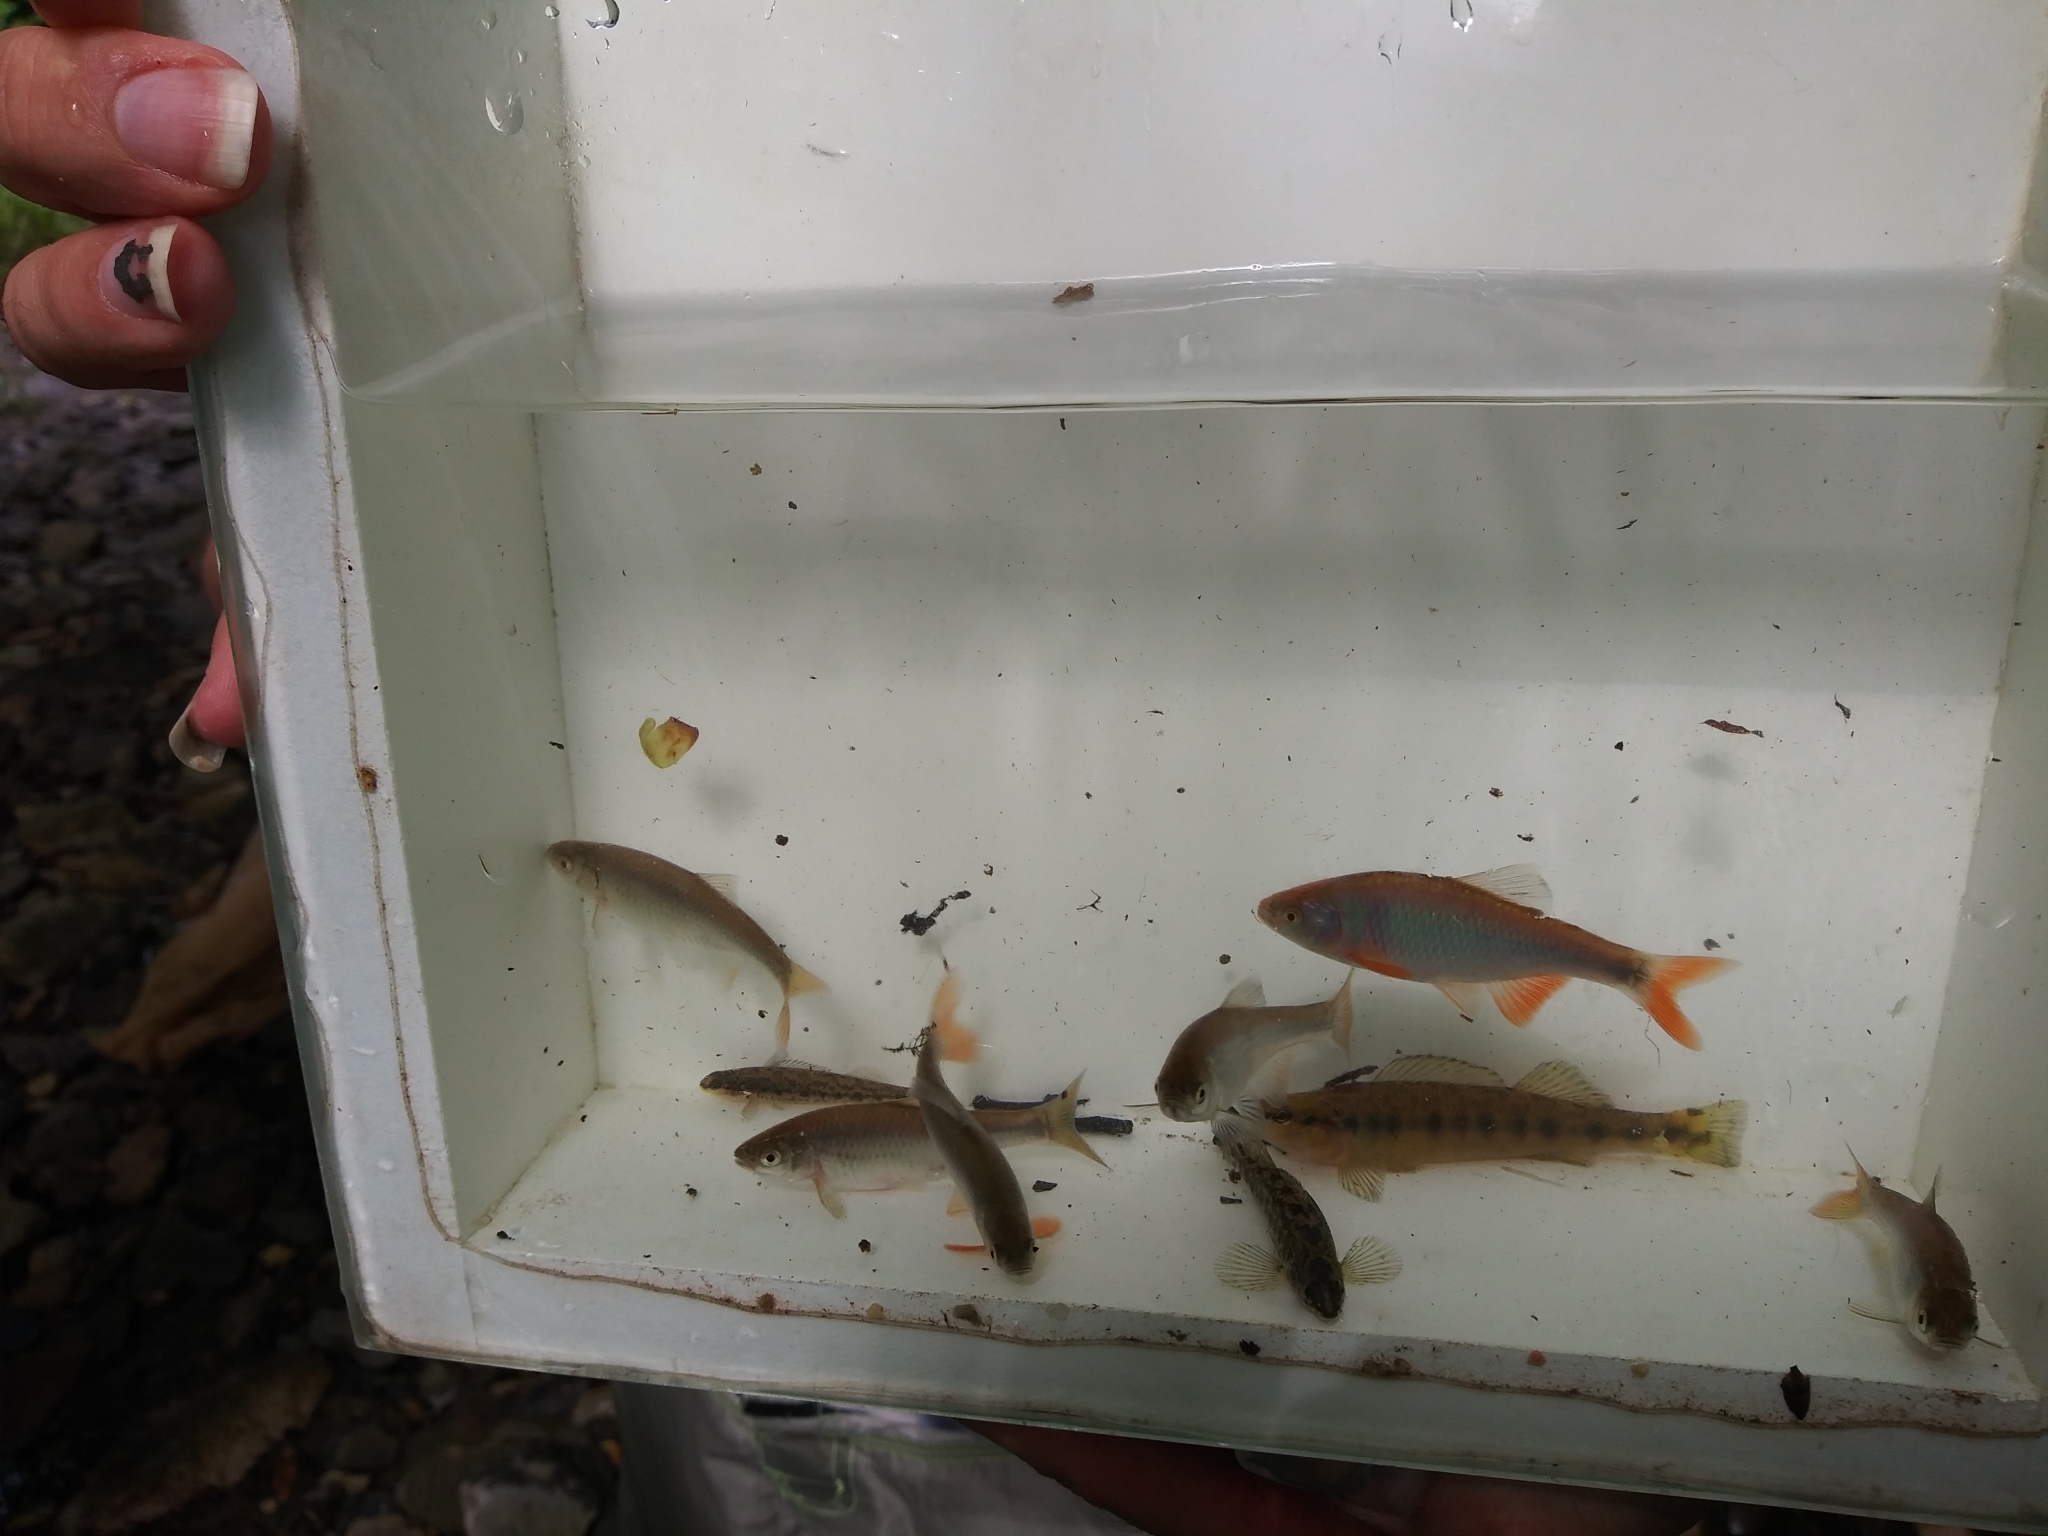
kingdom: Animalia
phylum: Chordata
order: Cypriniformes
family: Cyprinidae
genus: Cyprinella
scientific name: Cyprinella lutrensis
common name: Red shiner
